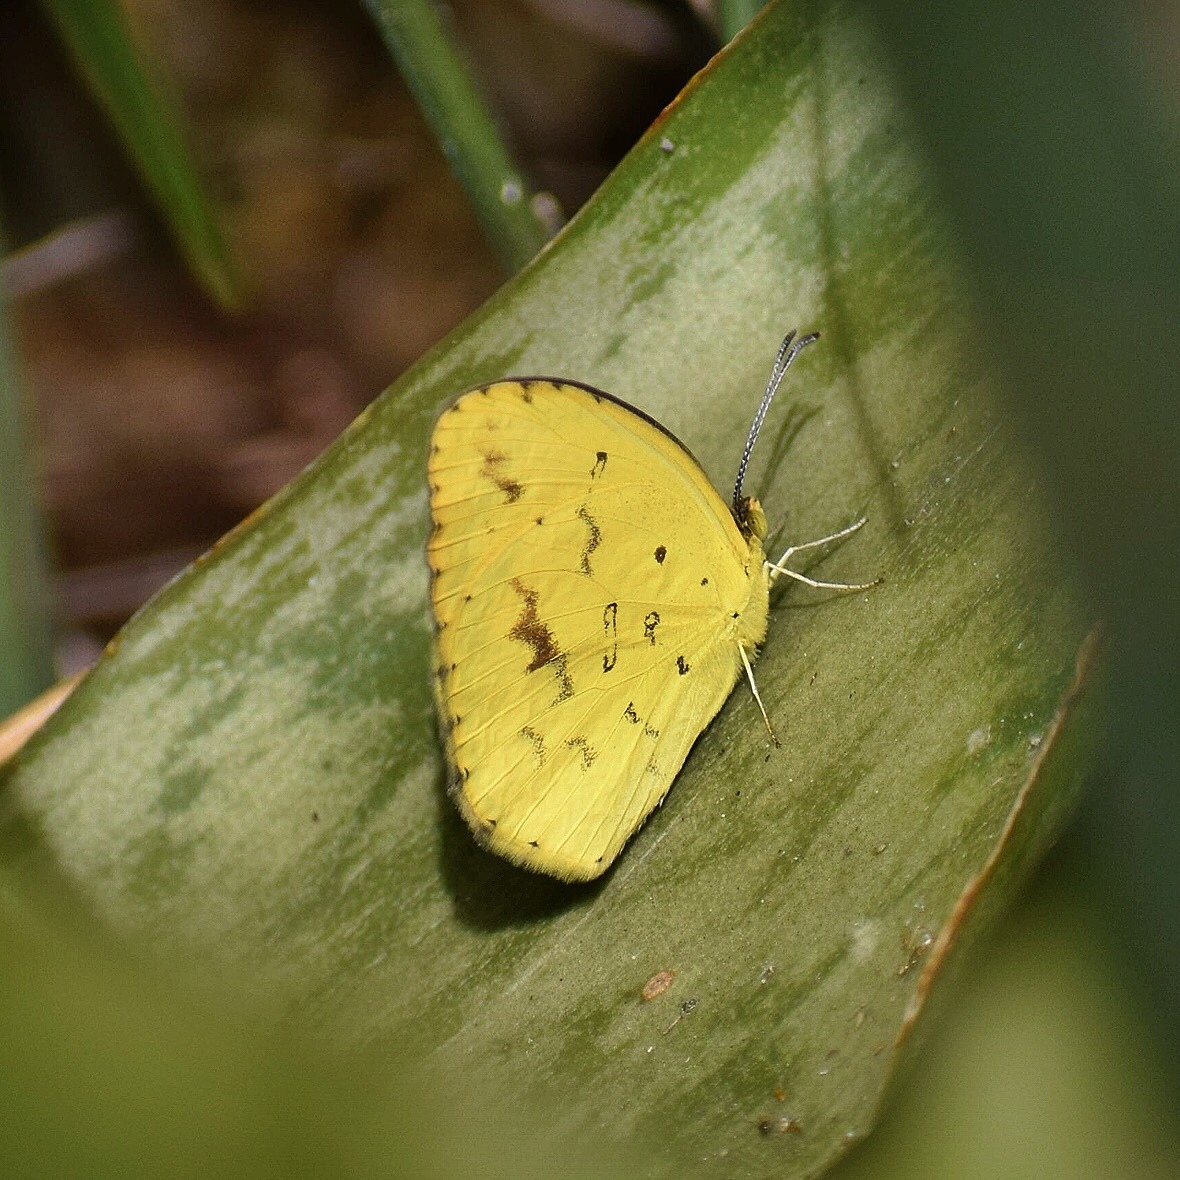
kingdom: Animalia
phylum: Arthropoda
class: Insecta
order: Lepidoptera
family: Pieridae
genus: Eurema
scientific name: Eurema regularis
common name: Regular grass yellow
